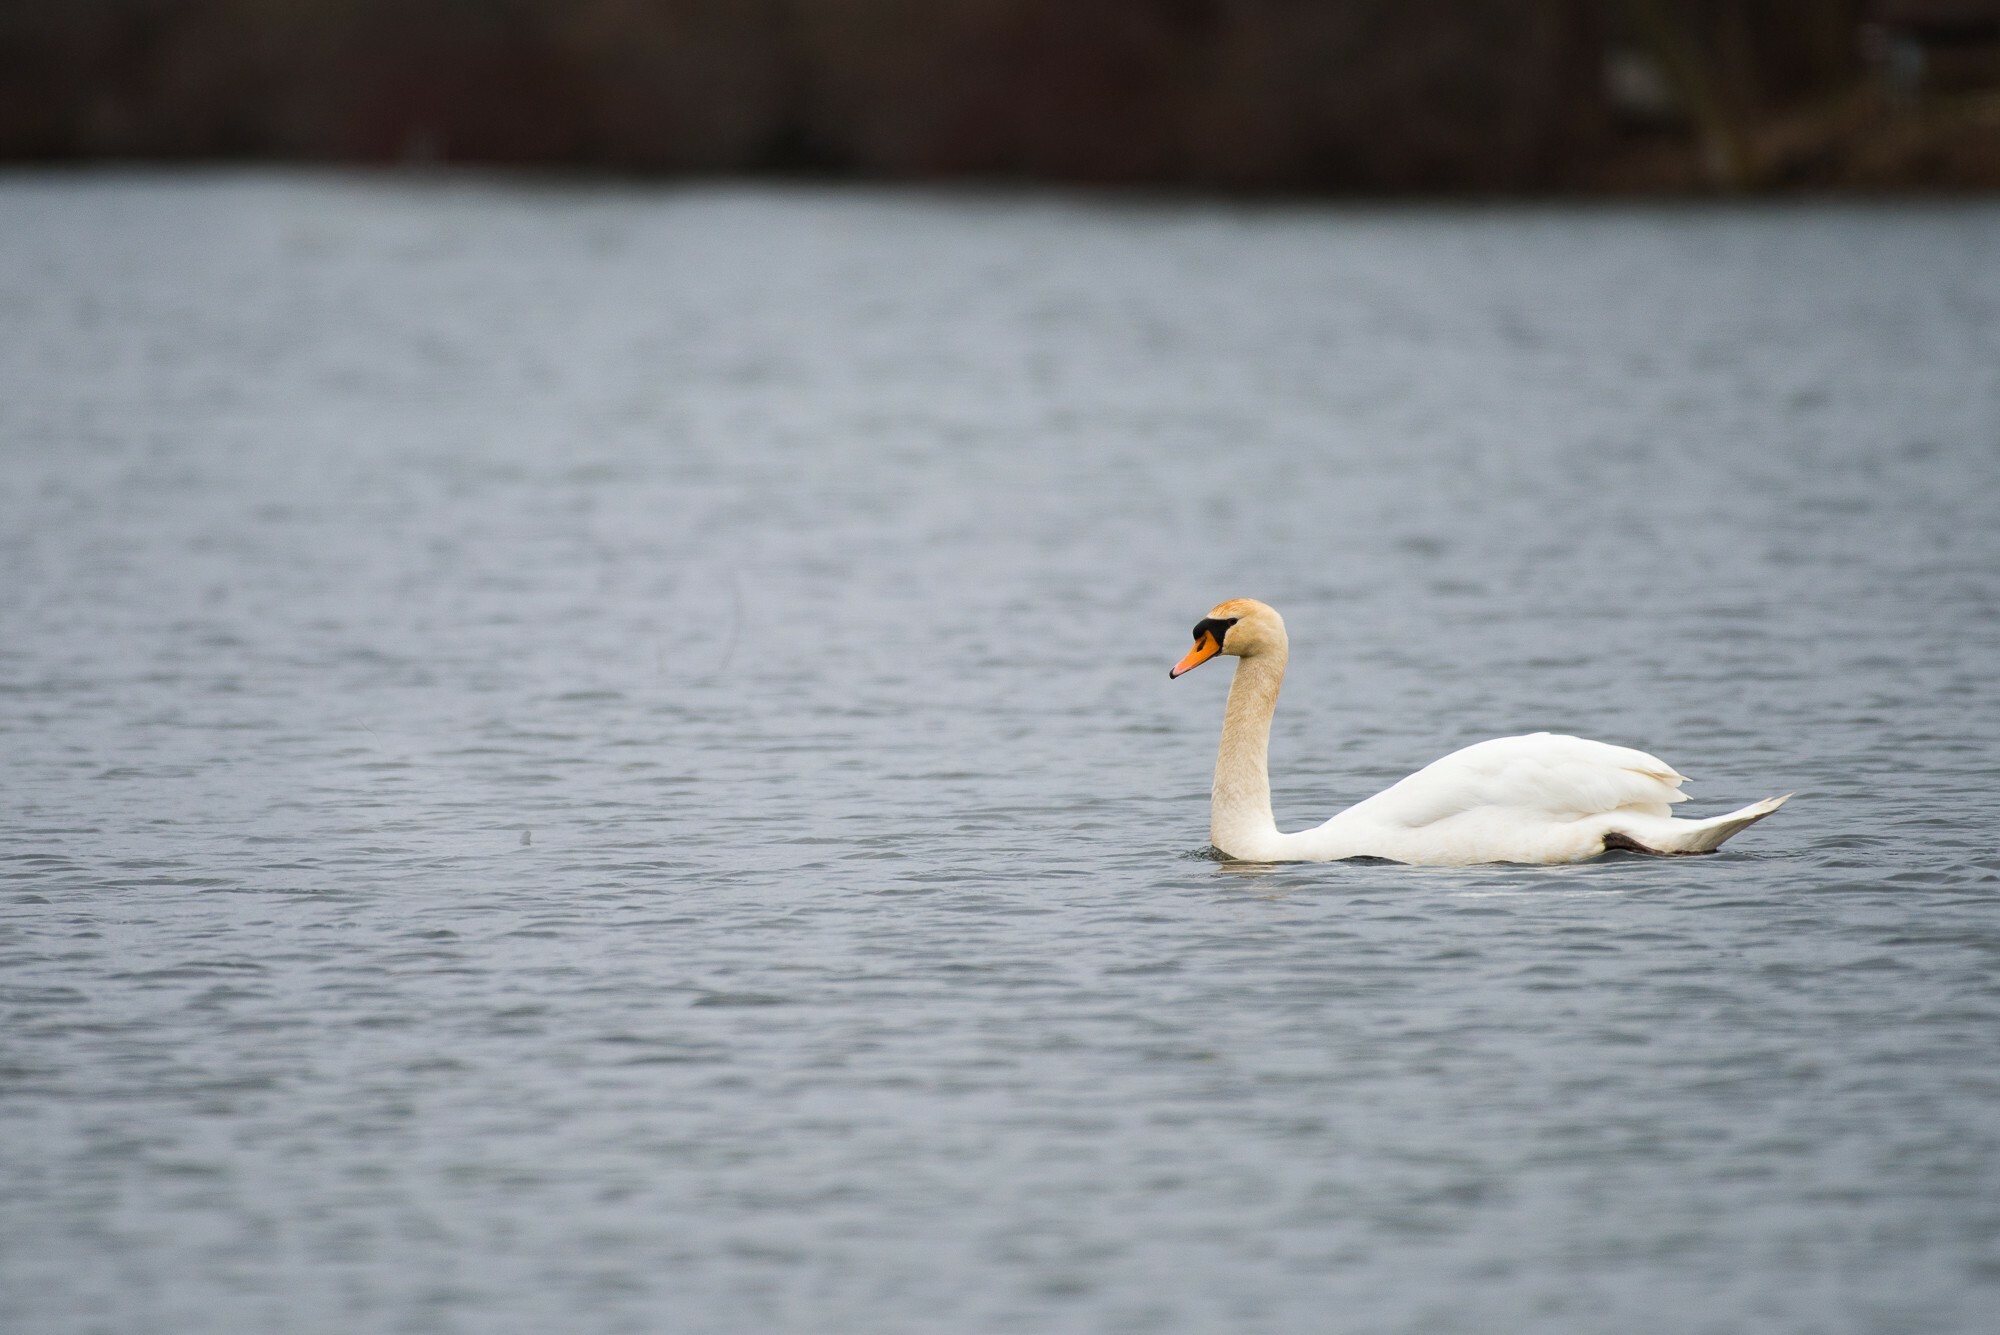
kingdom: Animalia
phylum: Chordata
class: Aves
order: Anseriformes
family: Anatidae
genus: Cygnus
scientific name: Cygnus olor
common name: Mute swan
